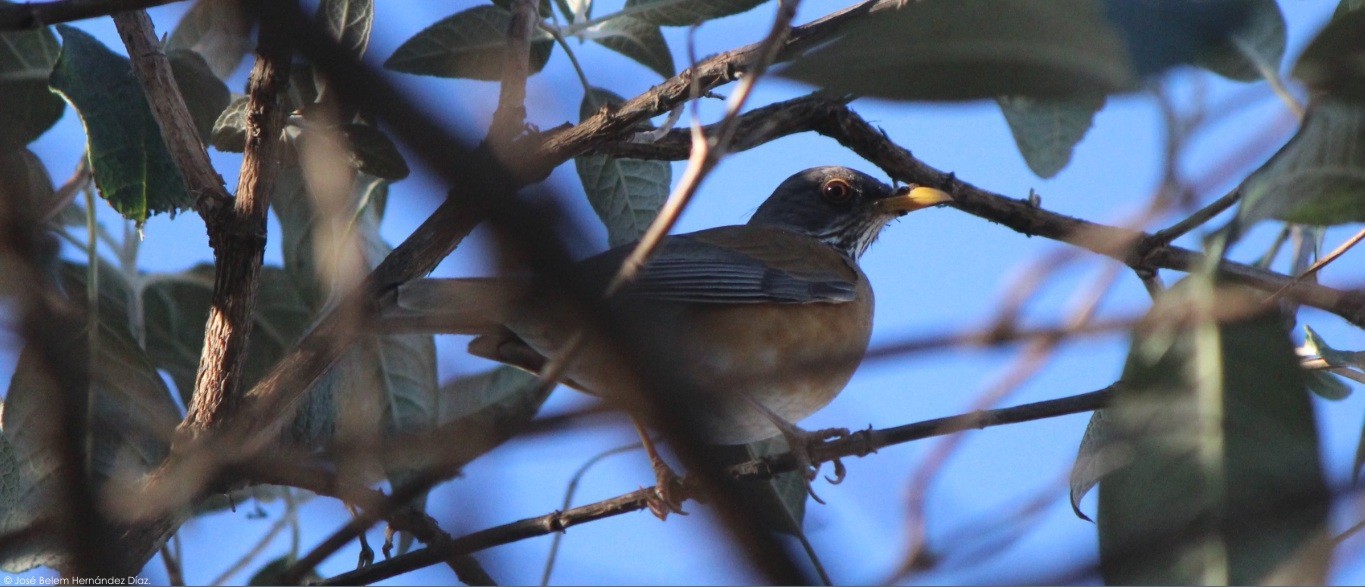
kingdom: Animalia
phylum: Chordata
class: Aves
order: Passeriformes
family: Turdidae
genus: Turdus
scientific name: Turdus rufopalliatus
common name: Rufous-backed robin
